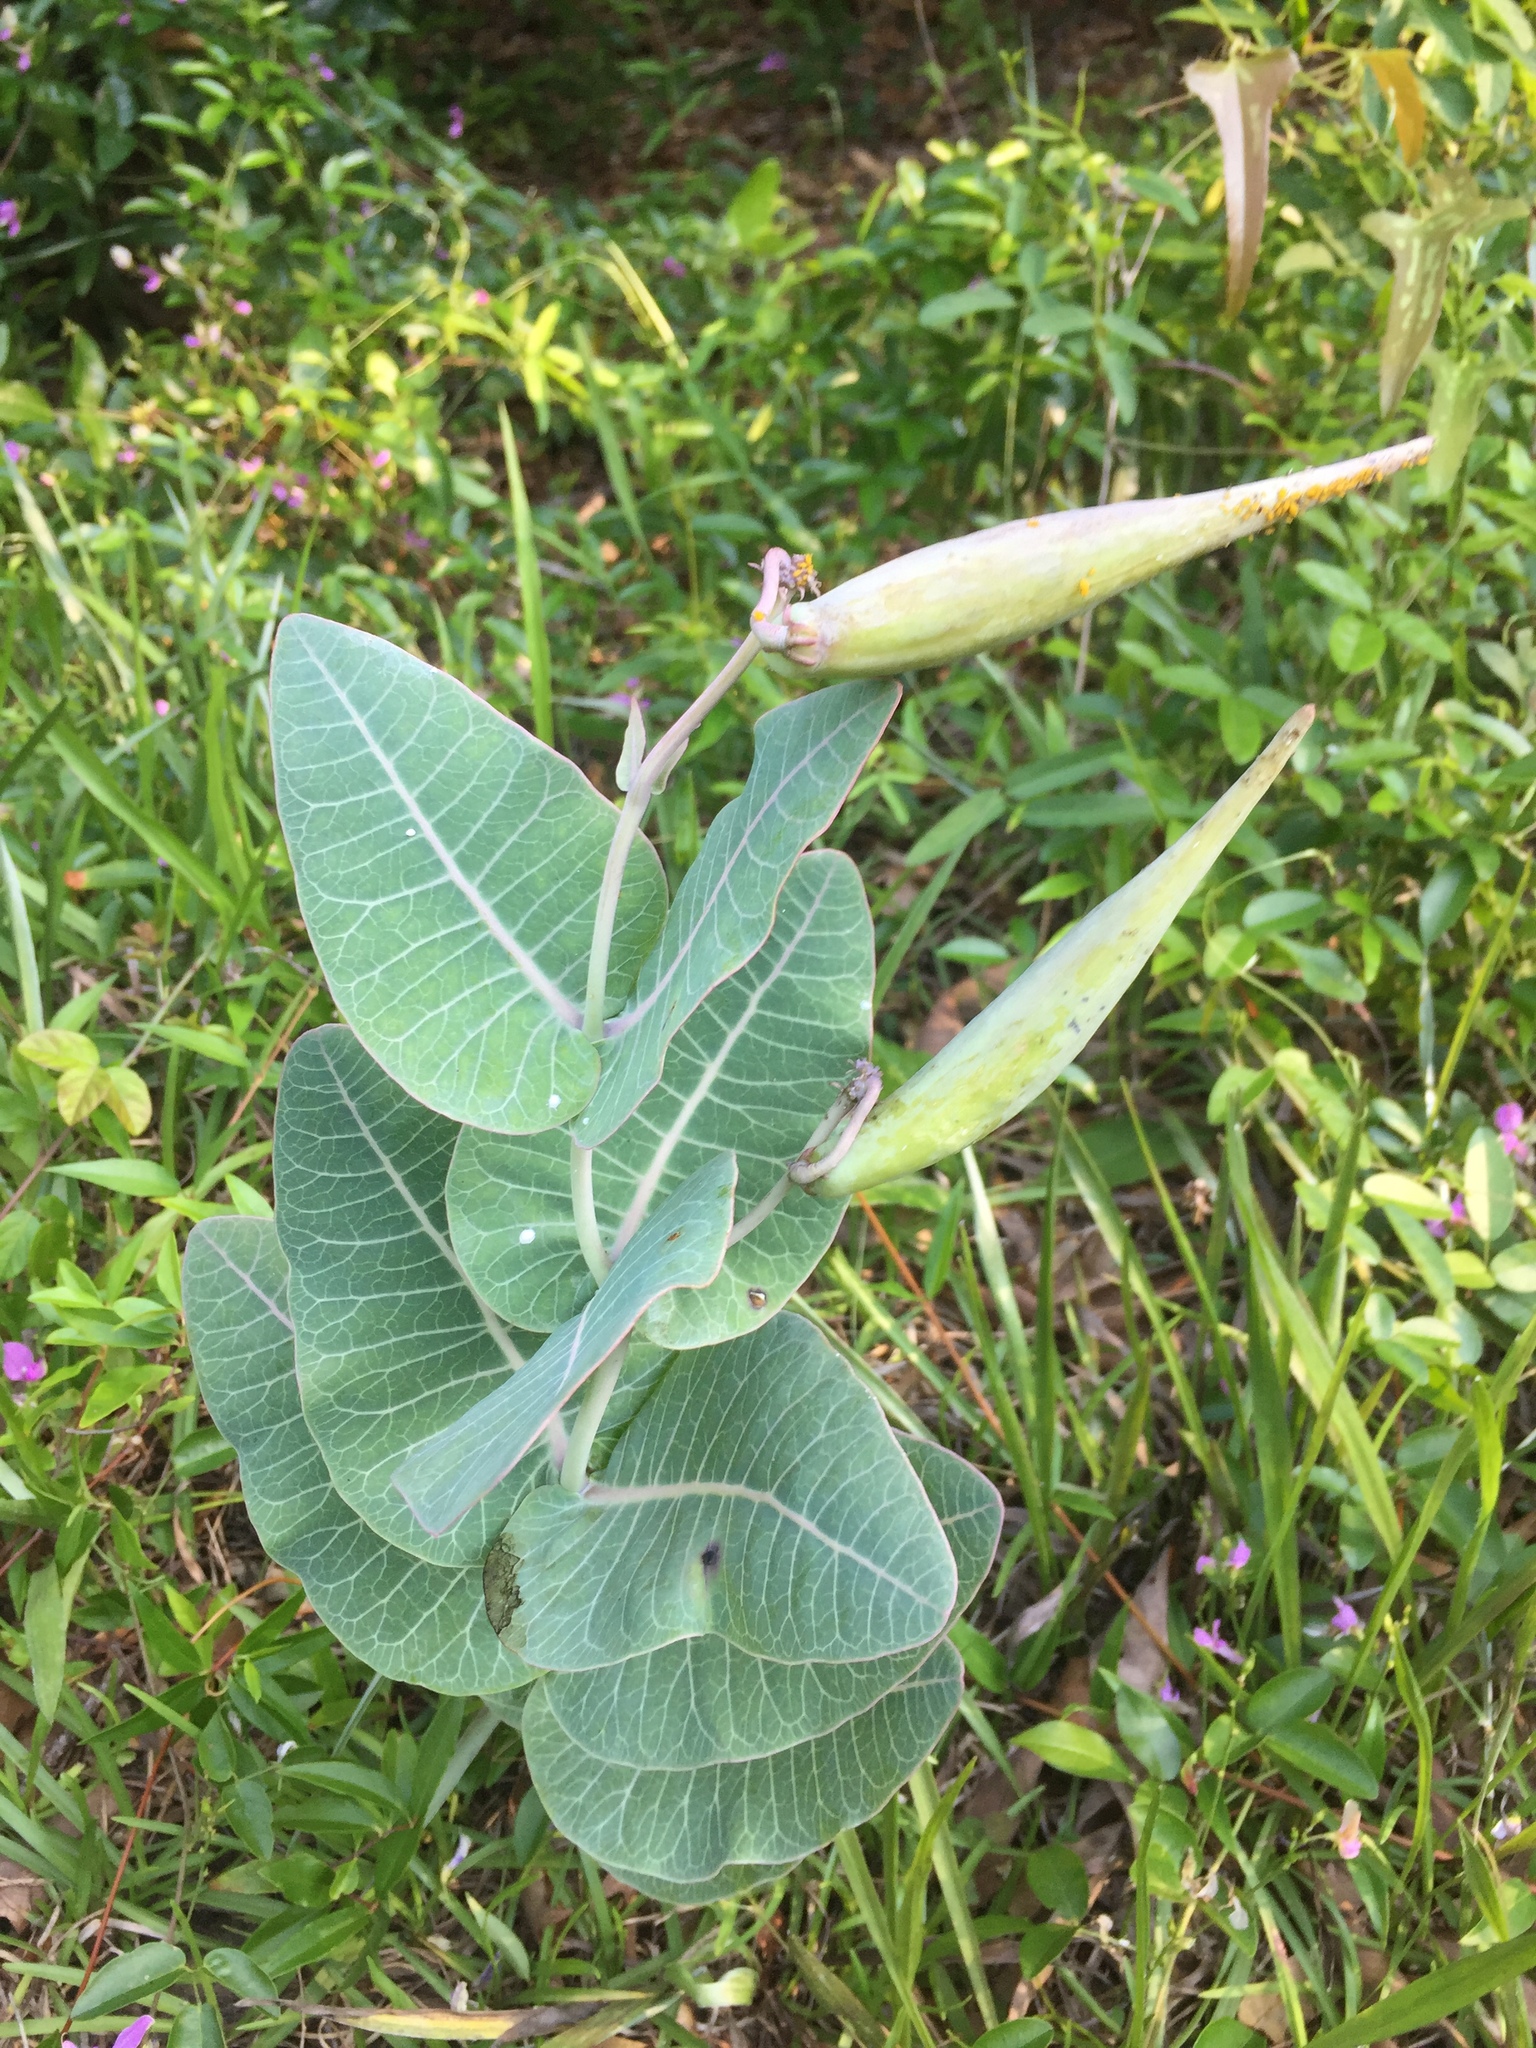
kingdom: Plantae
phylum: Tracheophyta
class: Magnoliopsida
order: Gentianales
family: Apocynaceae
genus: Asclepias
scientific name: Asclepias humistrata
